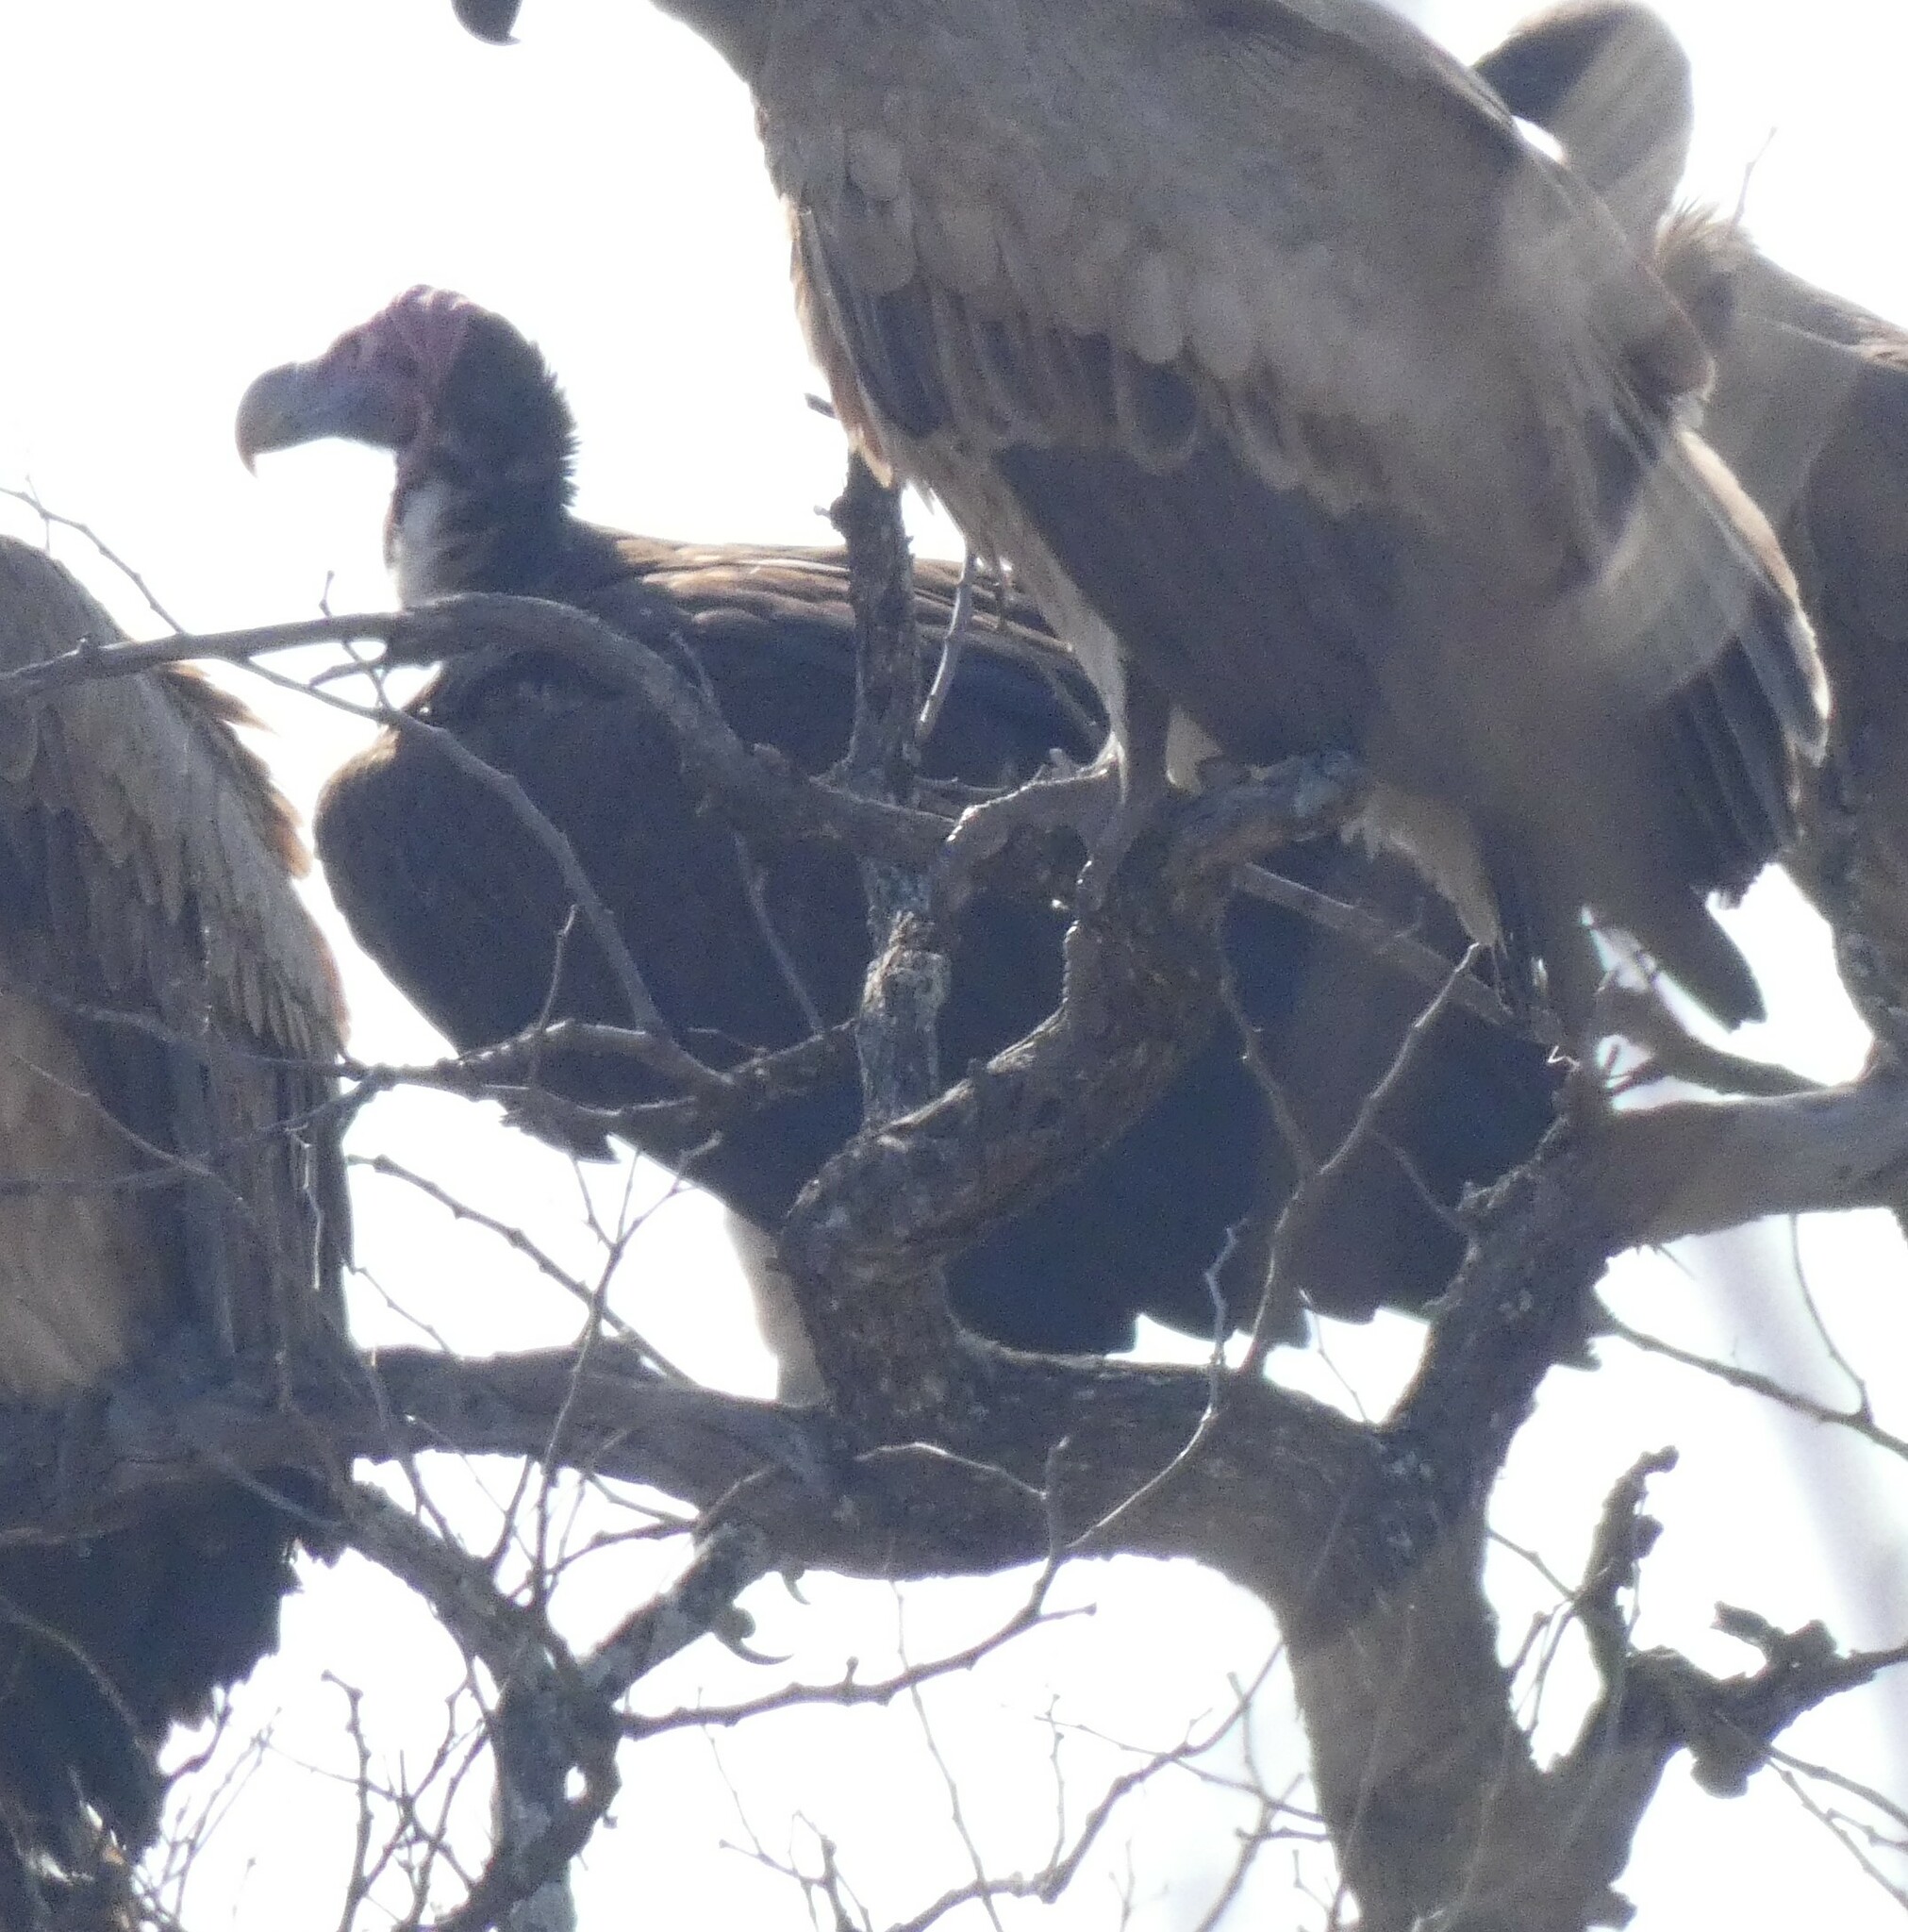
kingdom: Animalia
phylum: Chordata
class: Aves
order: Accipitriformes
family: Accipitridae
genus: Torgos
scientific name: Torgos tracheliotos
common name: Lappet-faced vulture
